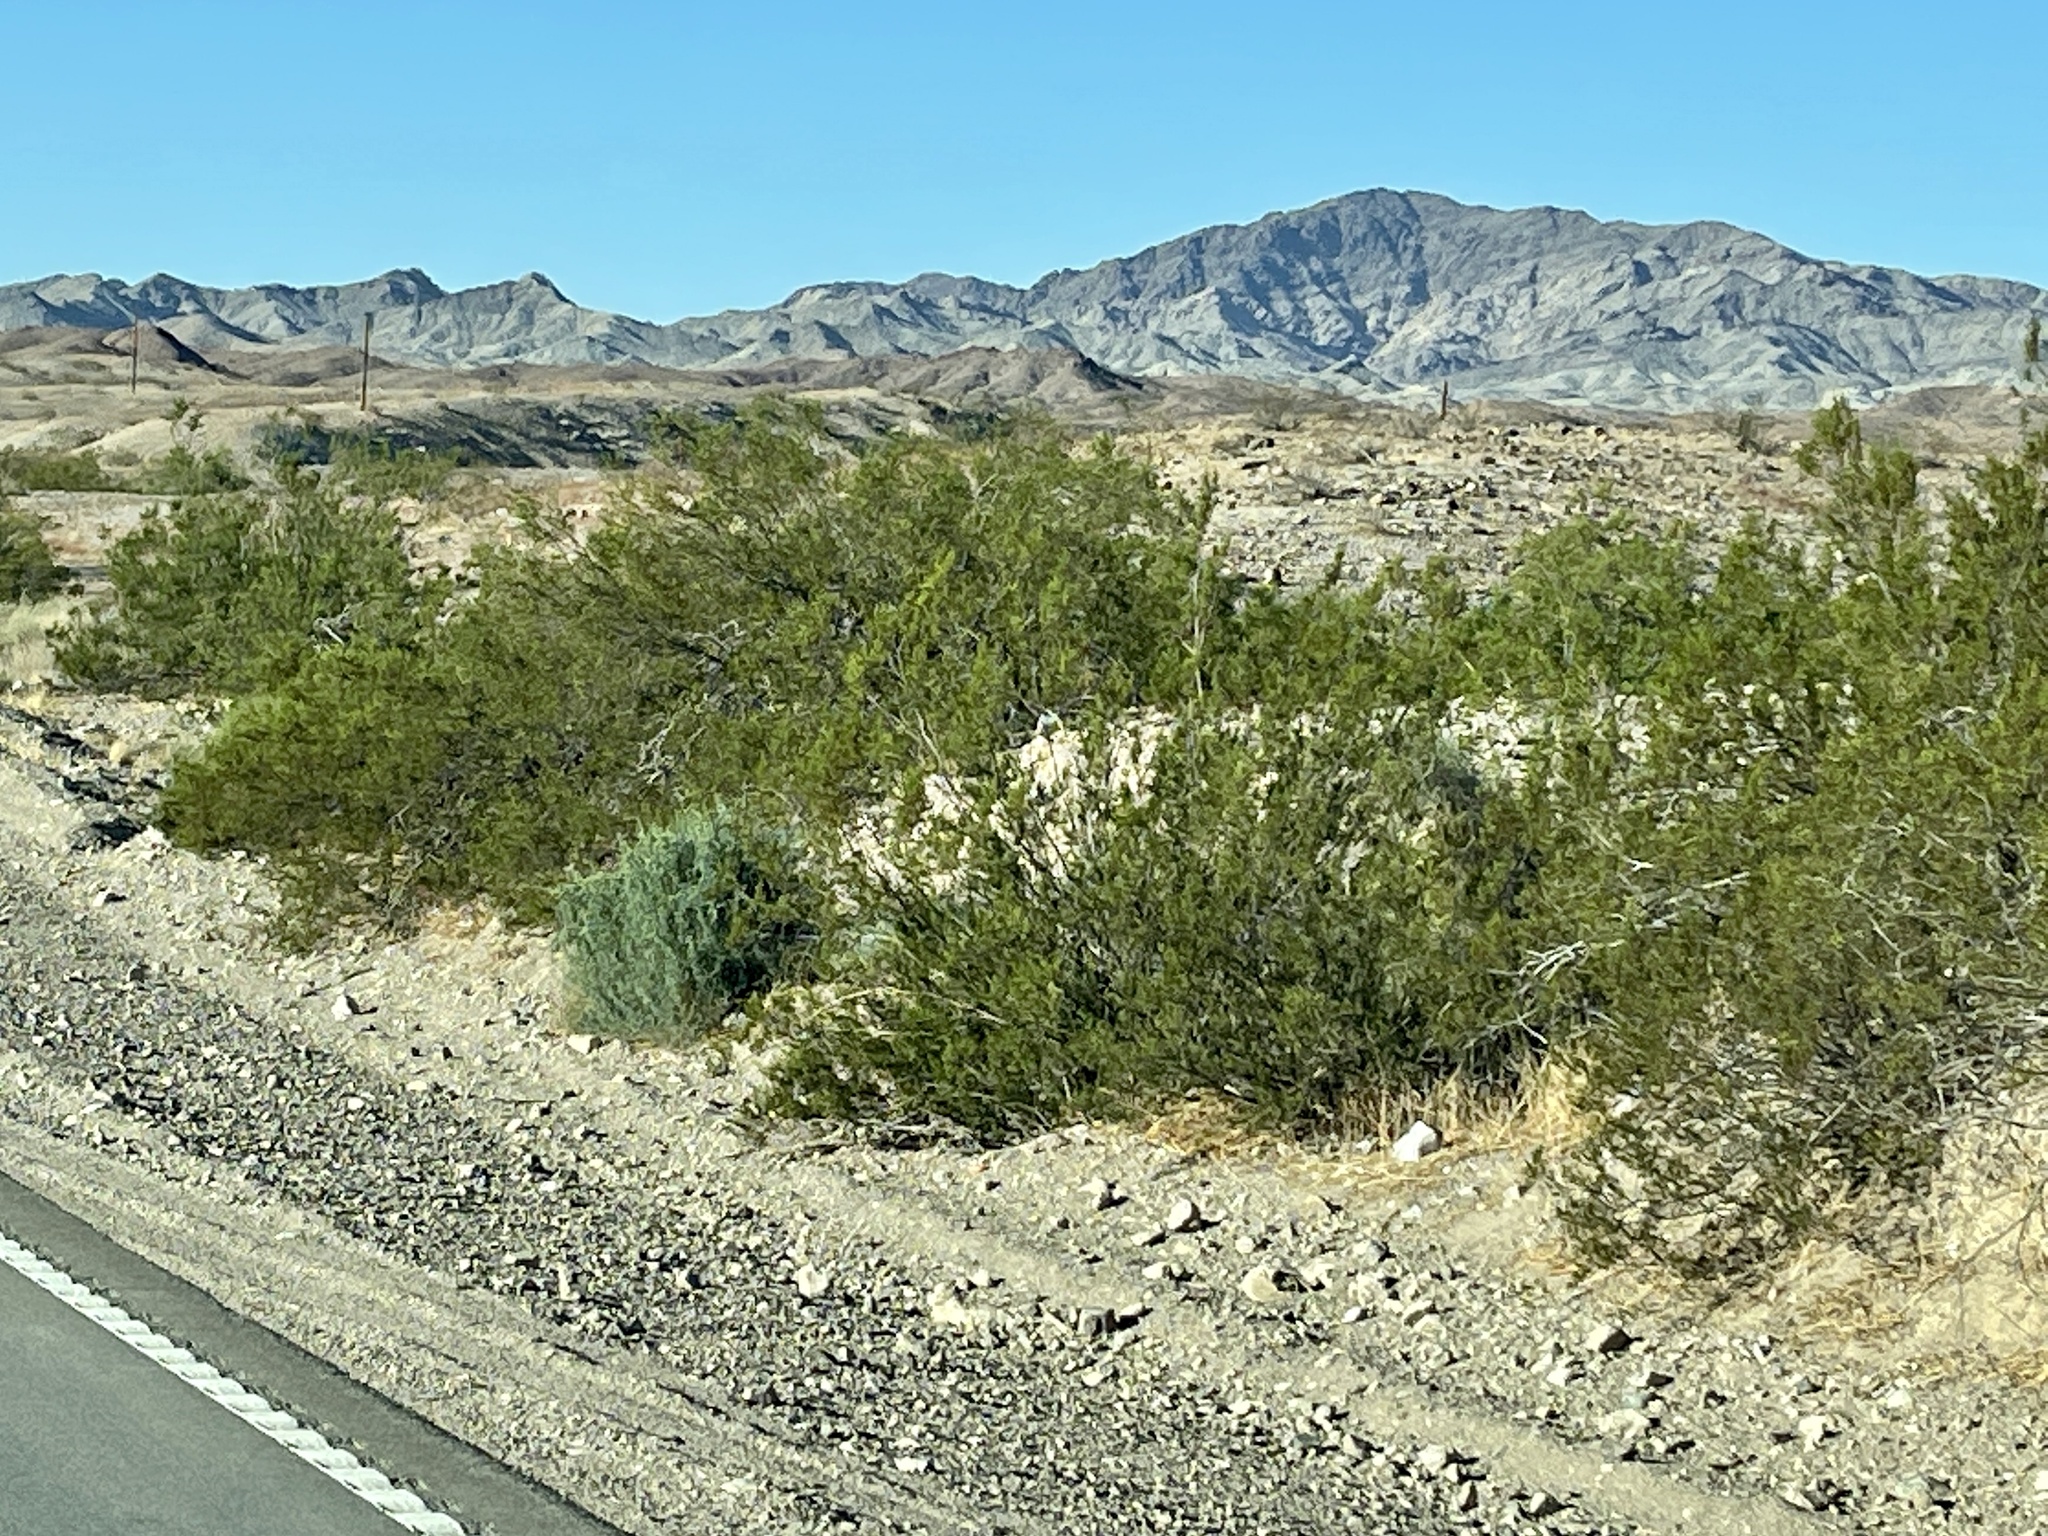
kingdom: Plantae
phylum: Tracheophyta
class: Magnoliopsida
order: Zygophyllales
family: Zygophyllaceae
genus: Larrea
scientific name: Larrea tridentata
